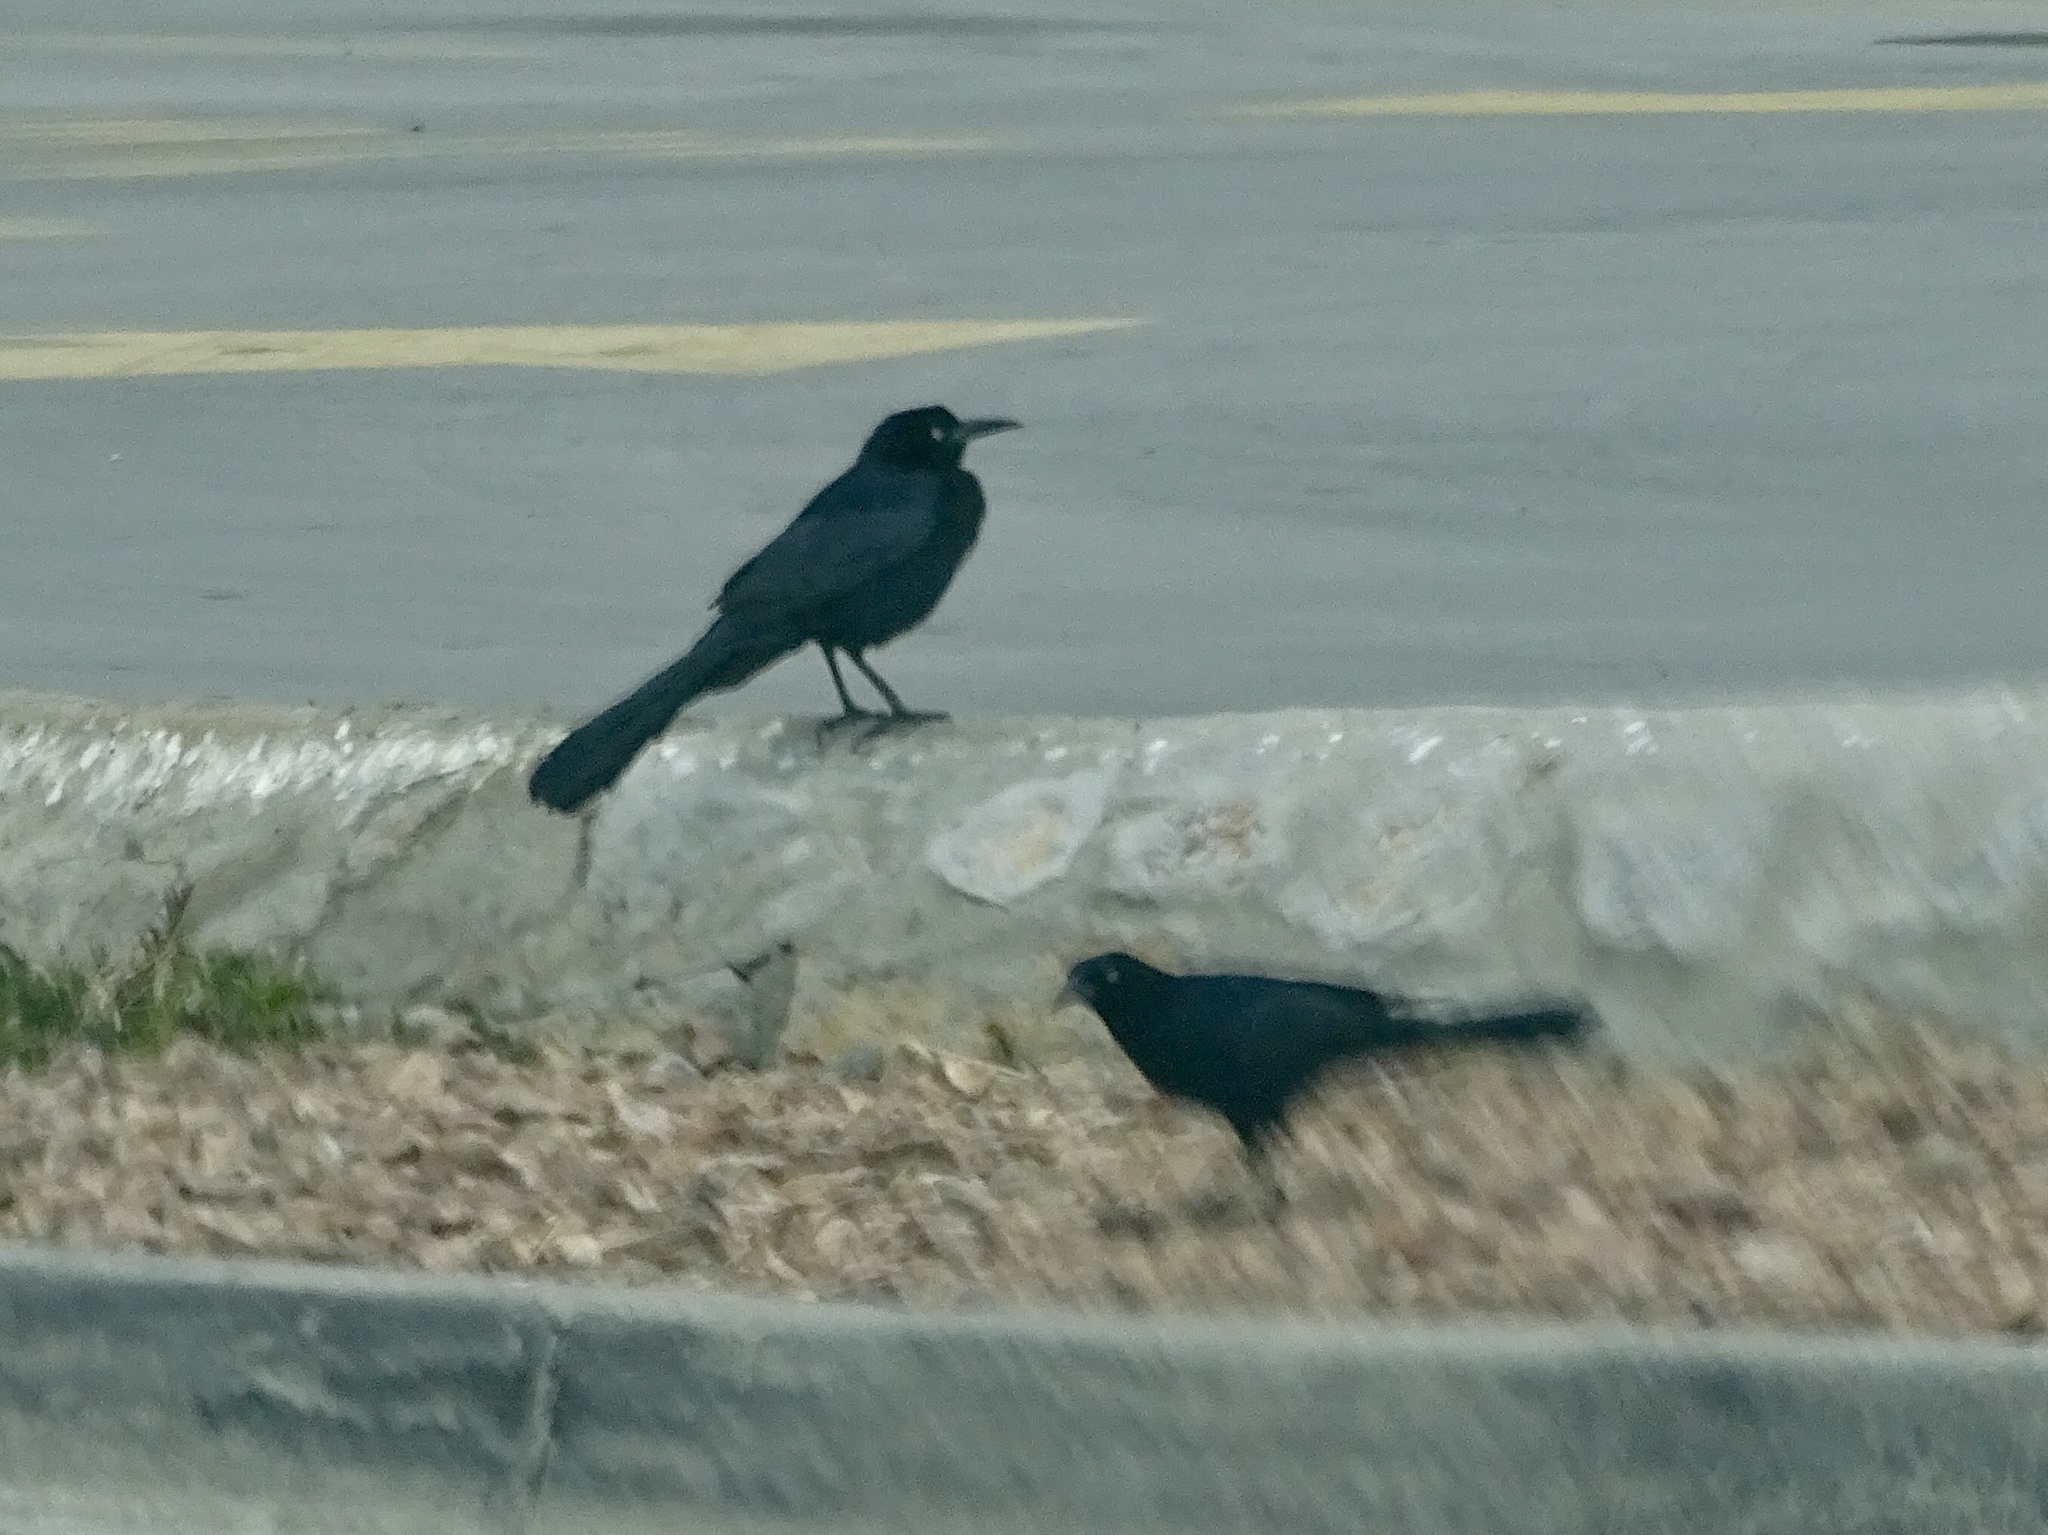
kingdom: Animalia
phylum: Chordata
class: Aves
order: Passeriformes
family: Icteridae
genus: Quiscalus
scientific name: Quiscalus mexicanus
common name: Great-tailed grackle
